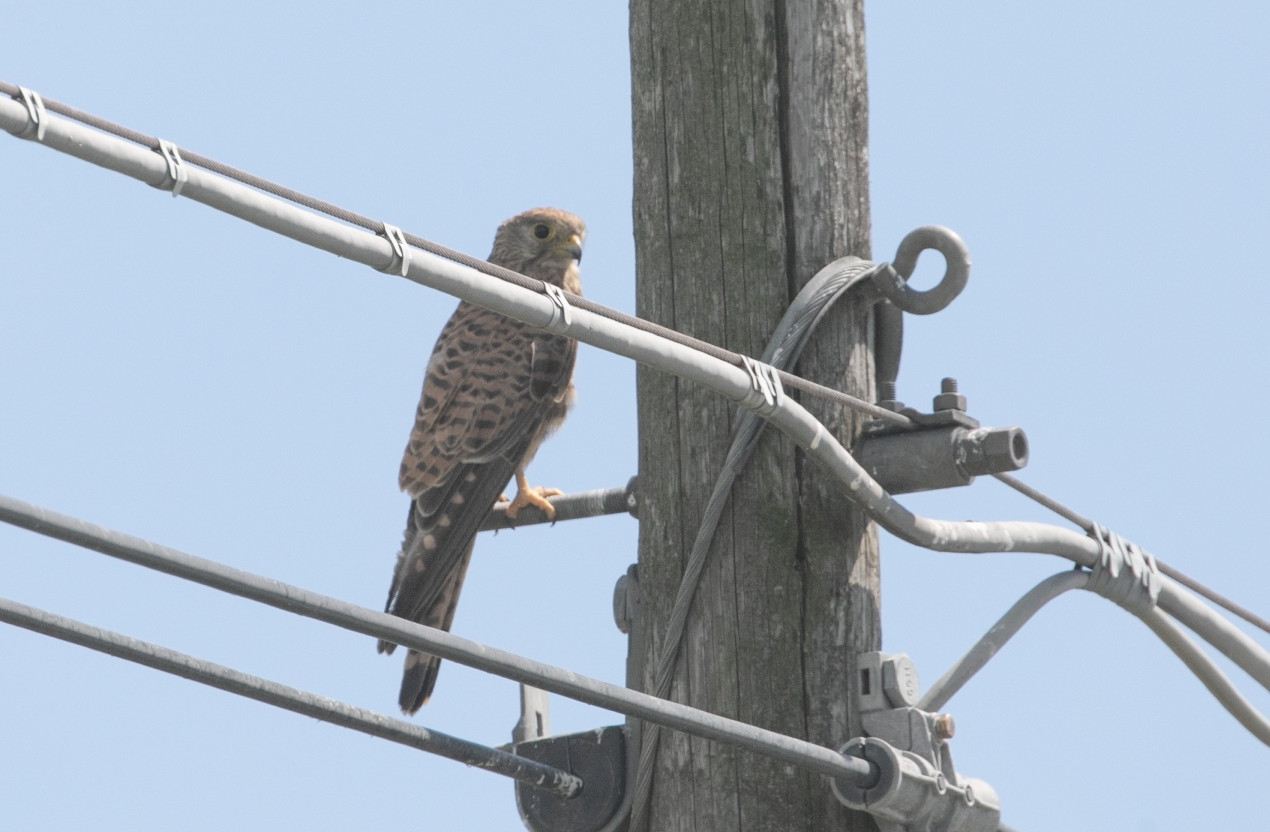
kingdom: Animalia
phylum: Chordata
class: Aves
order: Falconiformes
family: Falconidae
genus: Falco
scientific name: Falco tinnunculus
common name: Common kestrel
